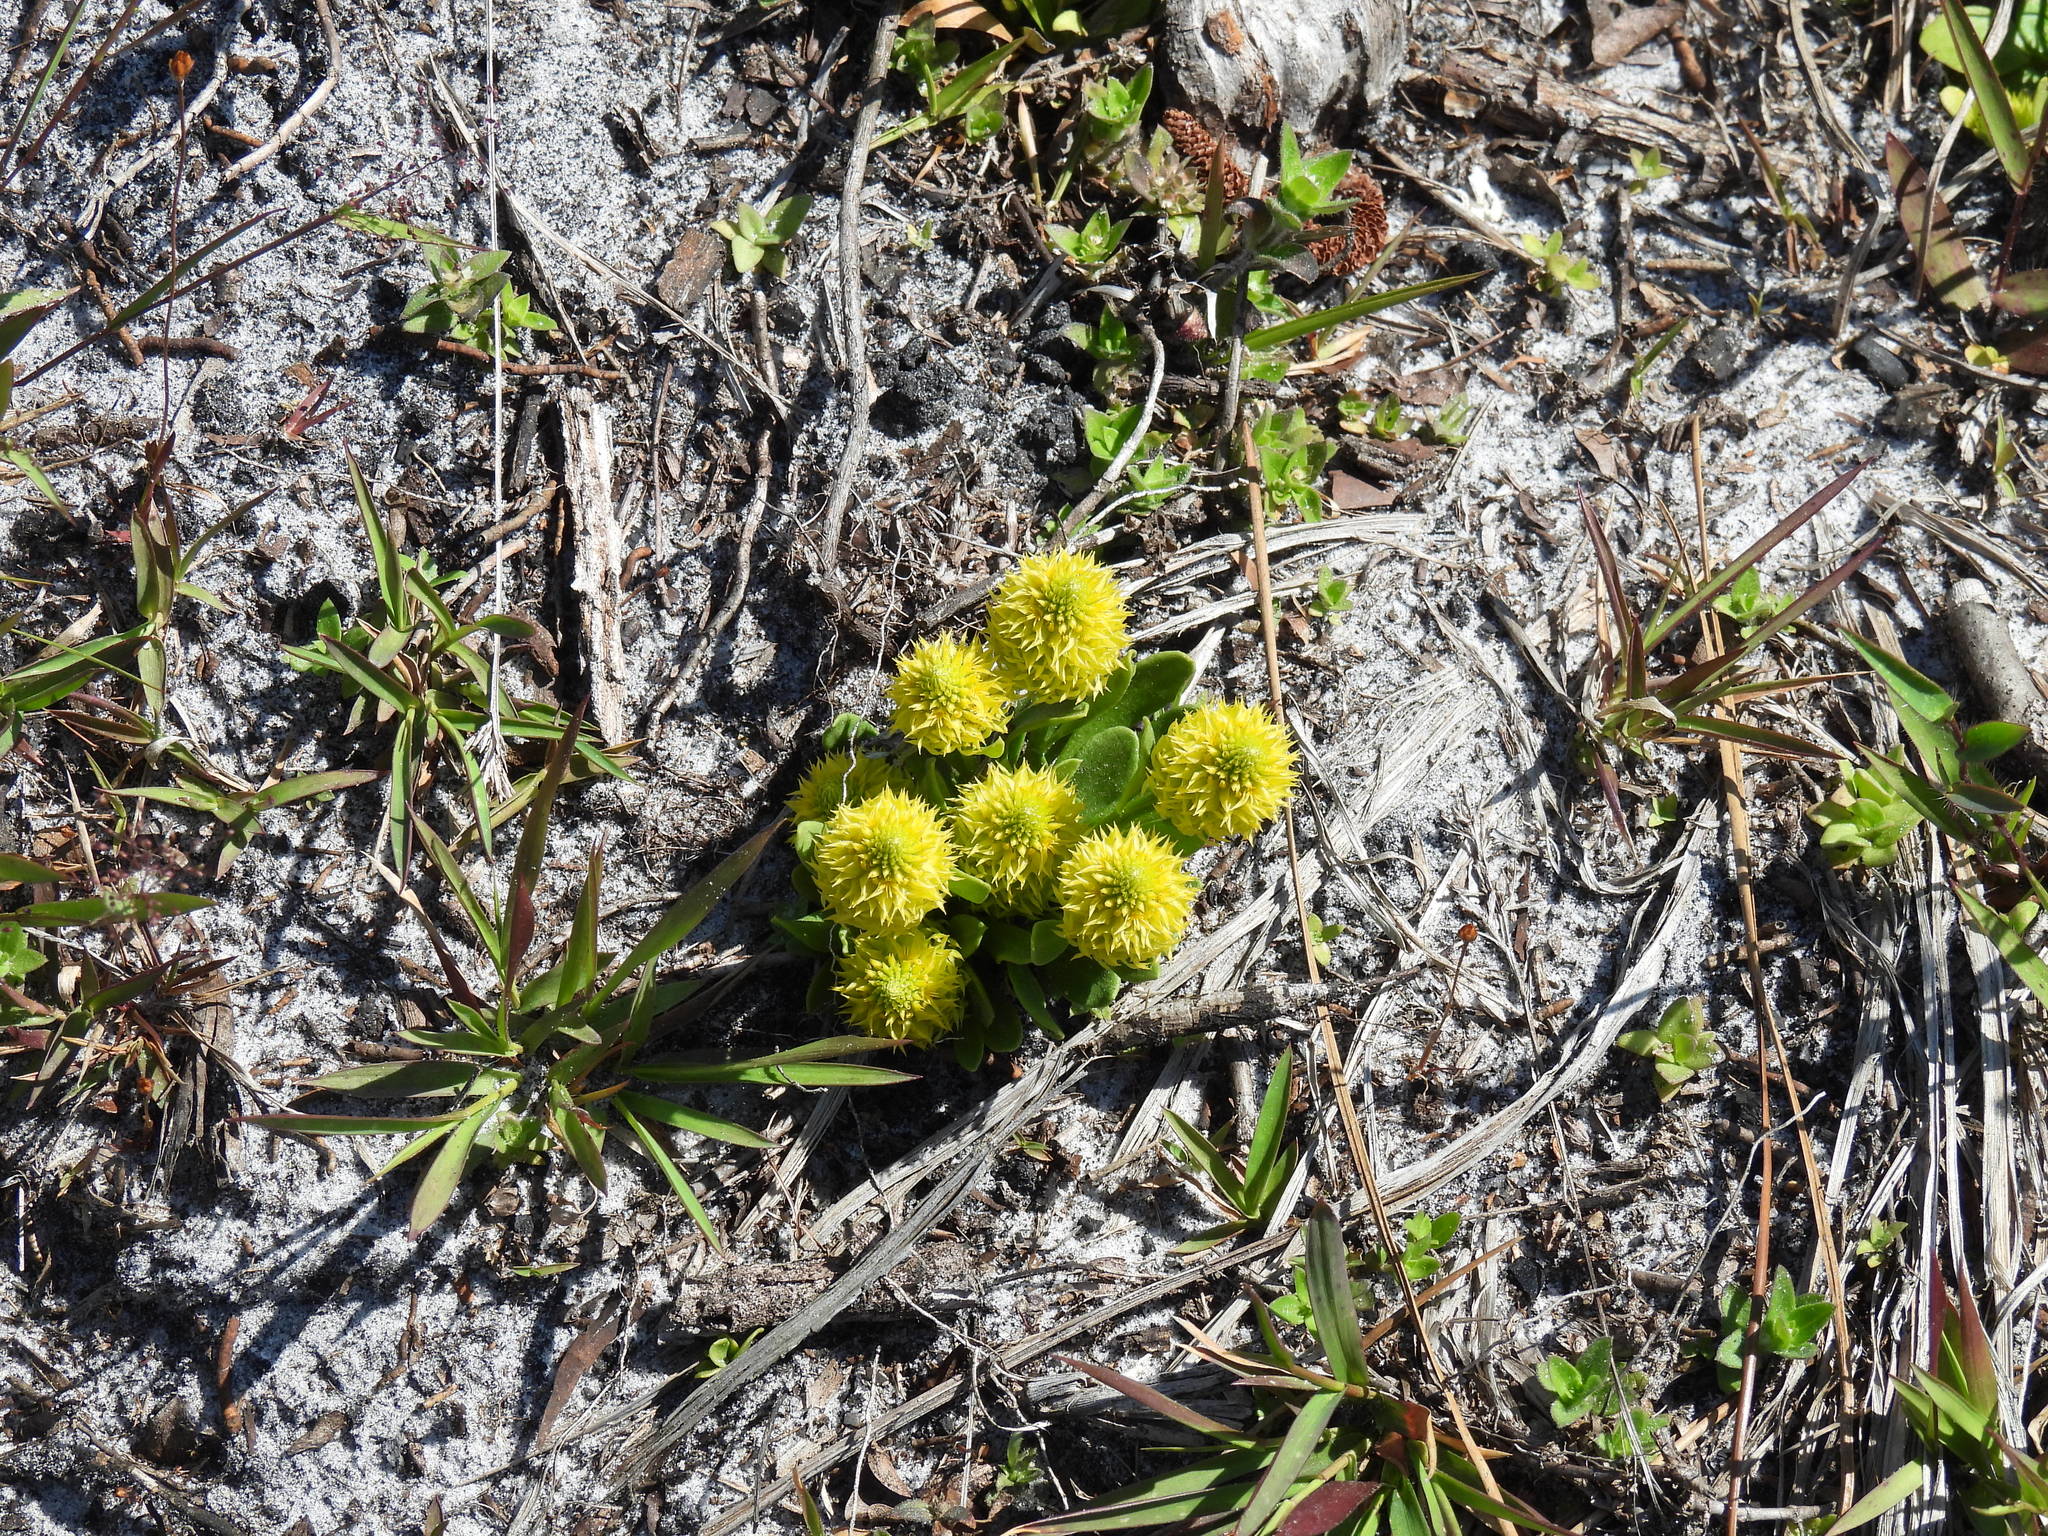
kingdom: Plantae
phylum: Tracheophyta
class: Magnoliopsida
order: Fabales
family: Polygalaceae
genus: Polygala
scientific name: Polygala nana
